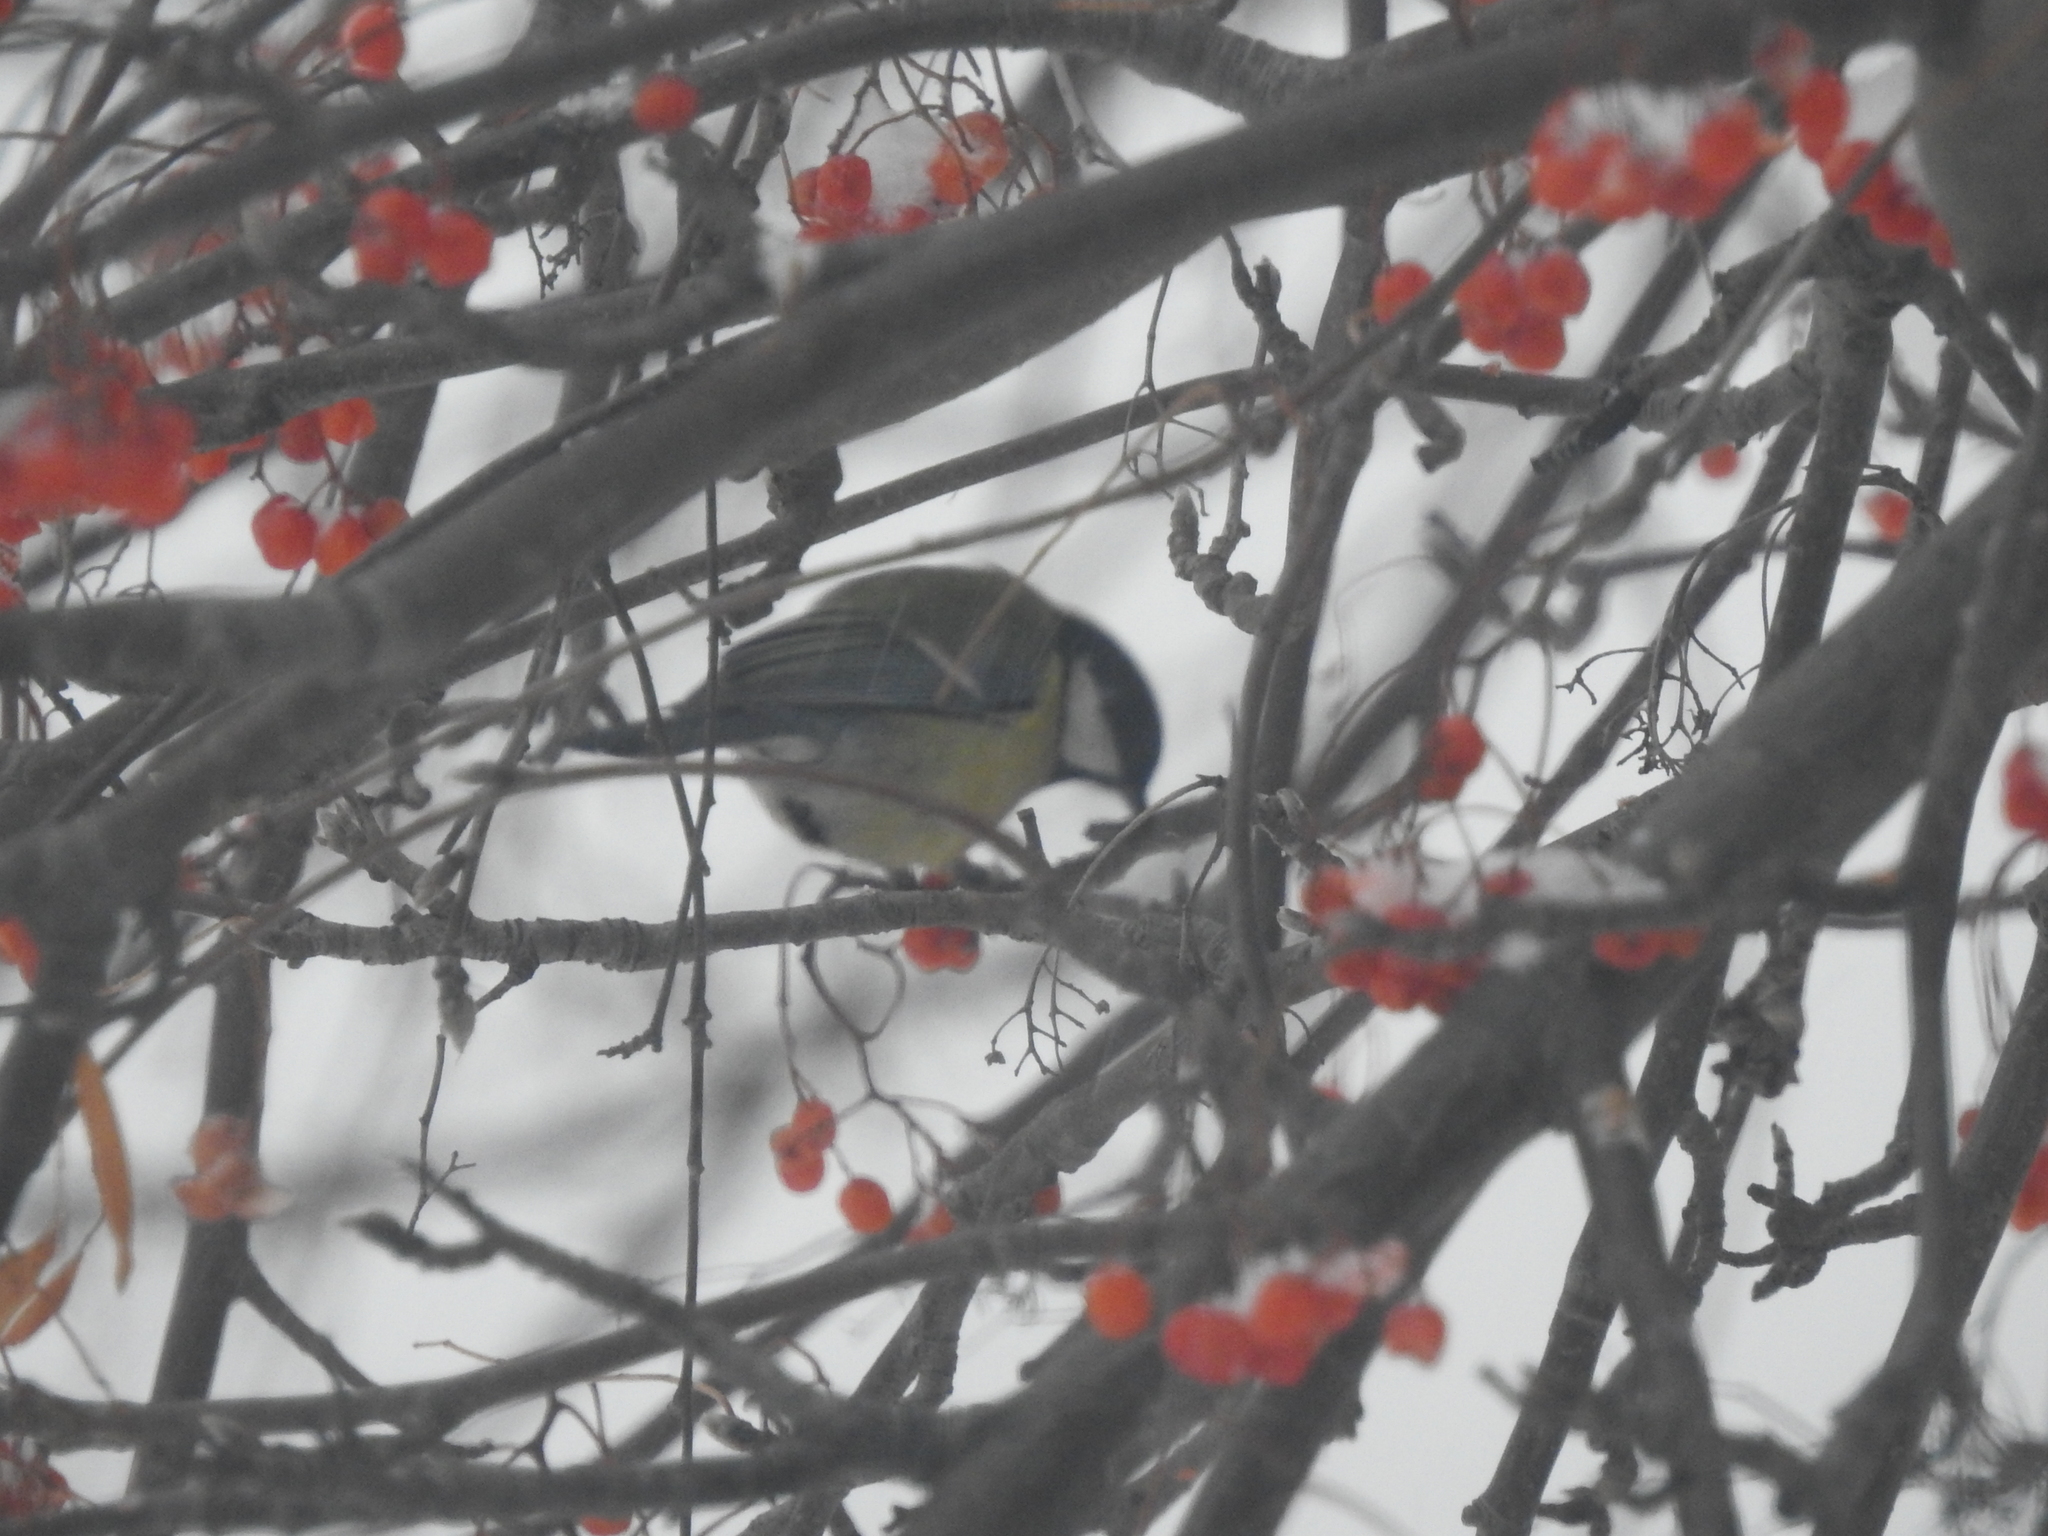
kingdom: Animalia
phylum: Chordata
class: Aves
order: Passeriformes
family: Paridae
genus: Parus
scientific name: Parus major
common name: Great tit
